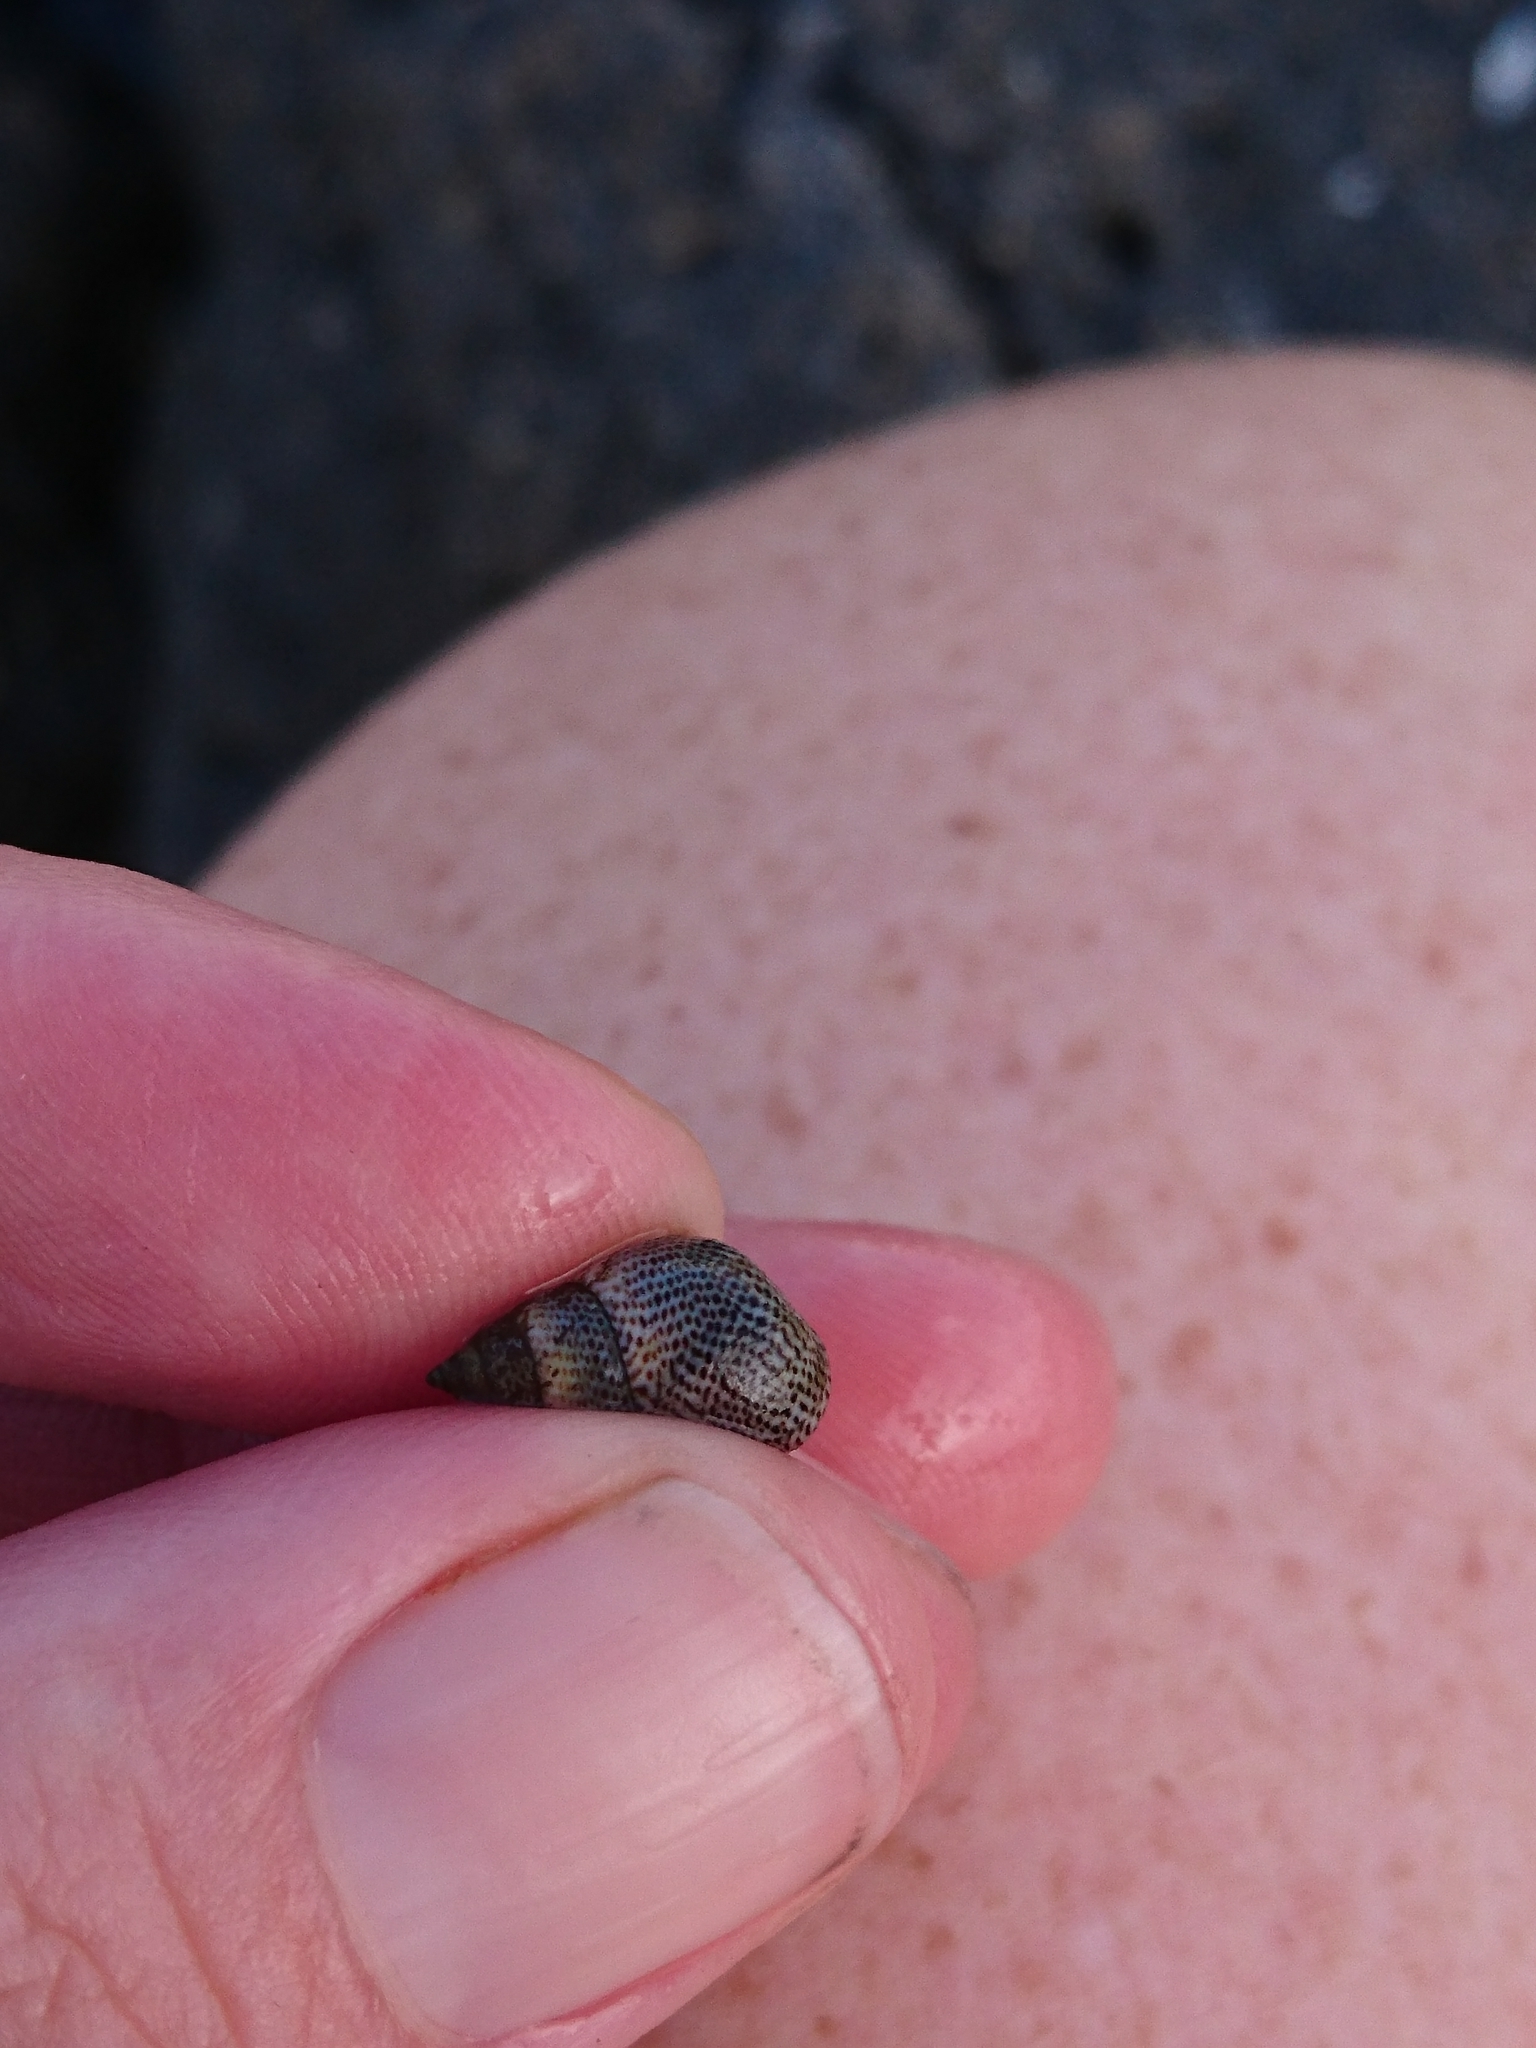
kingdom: Animalia
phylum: Mollusca
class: Gastropoda
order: Littorinimorpha
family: Littorinidae
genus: Littoraria
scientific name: Littoraria pintado
